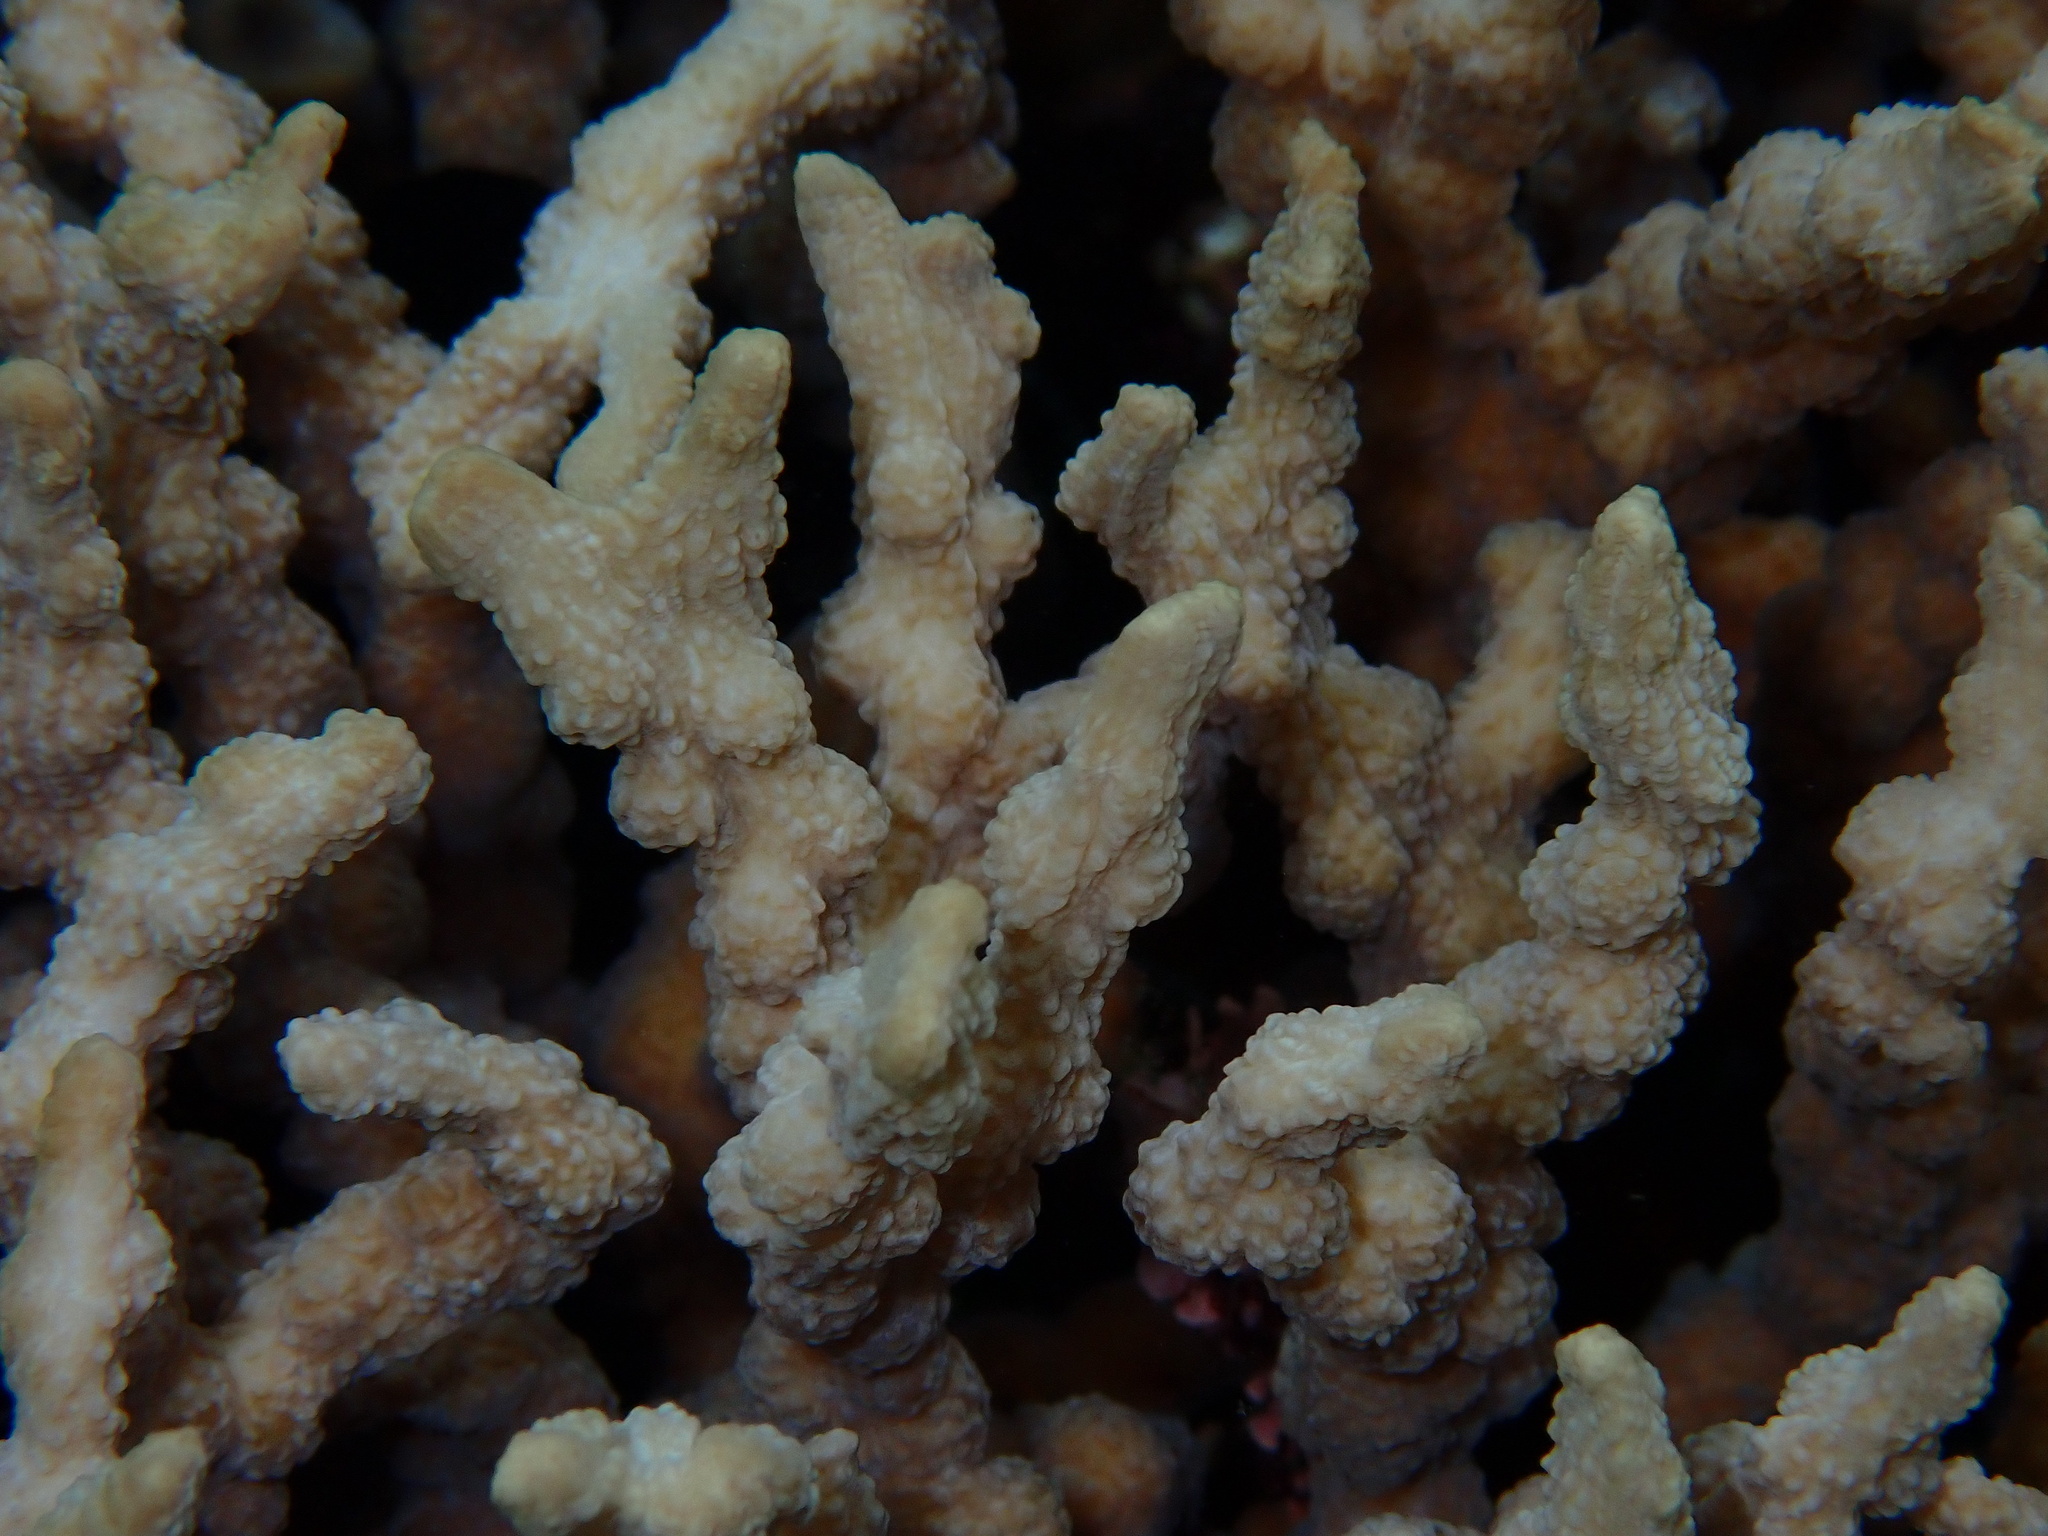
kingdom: Animalia
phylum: Cnidaria
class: Anthozoa
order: Scleractinia
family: Merulinidae
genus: Echinopora
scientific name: Echinopora horrida
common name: Hedgehog coral
